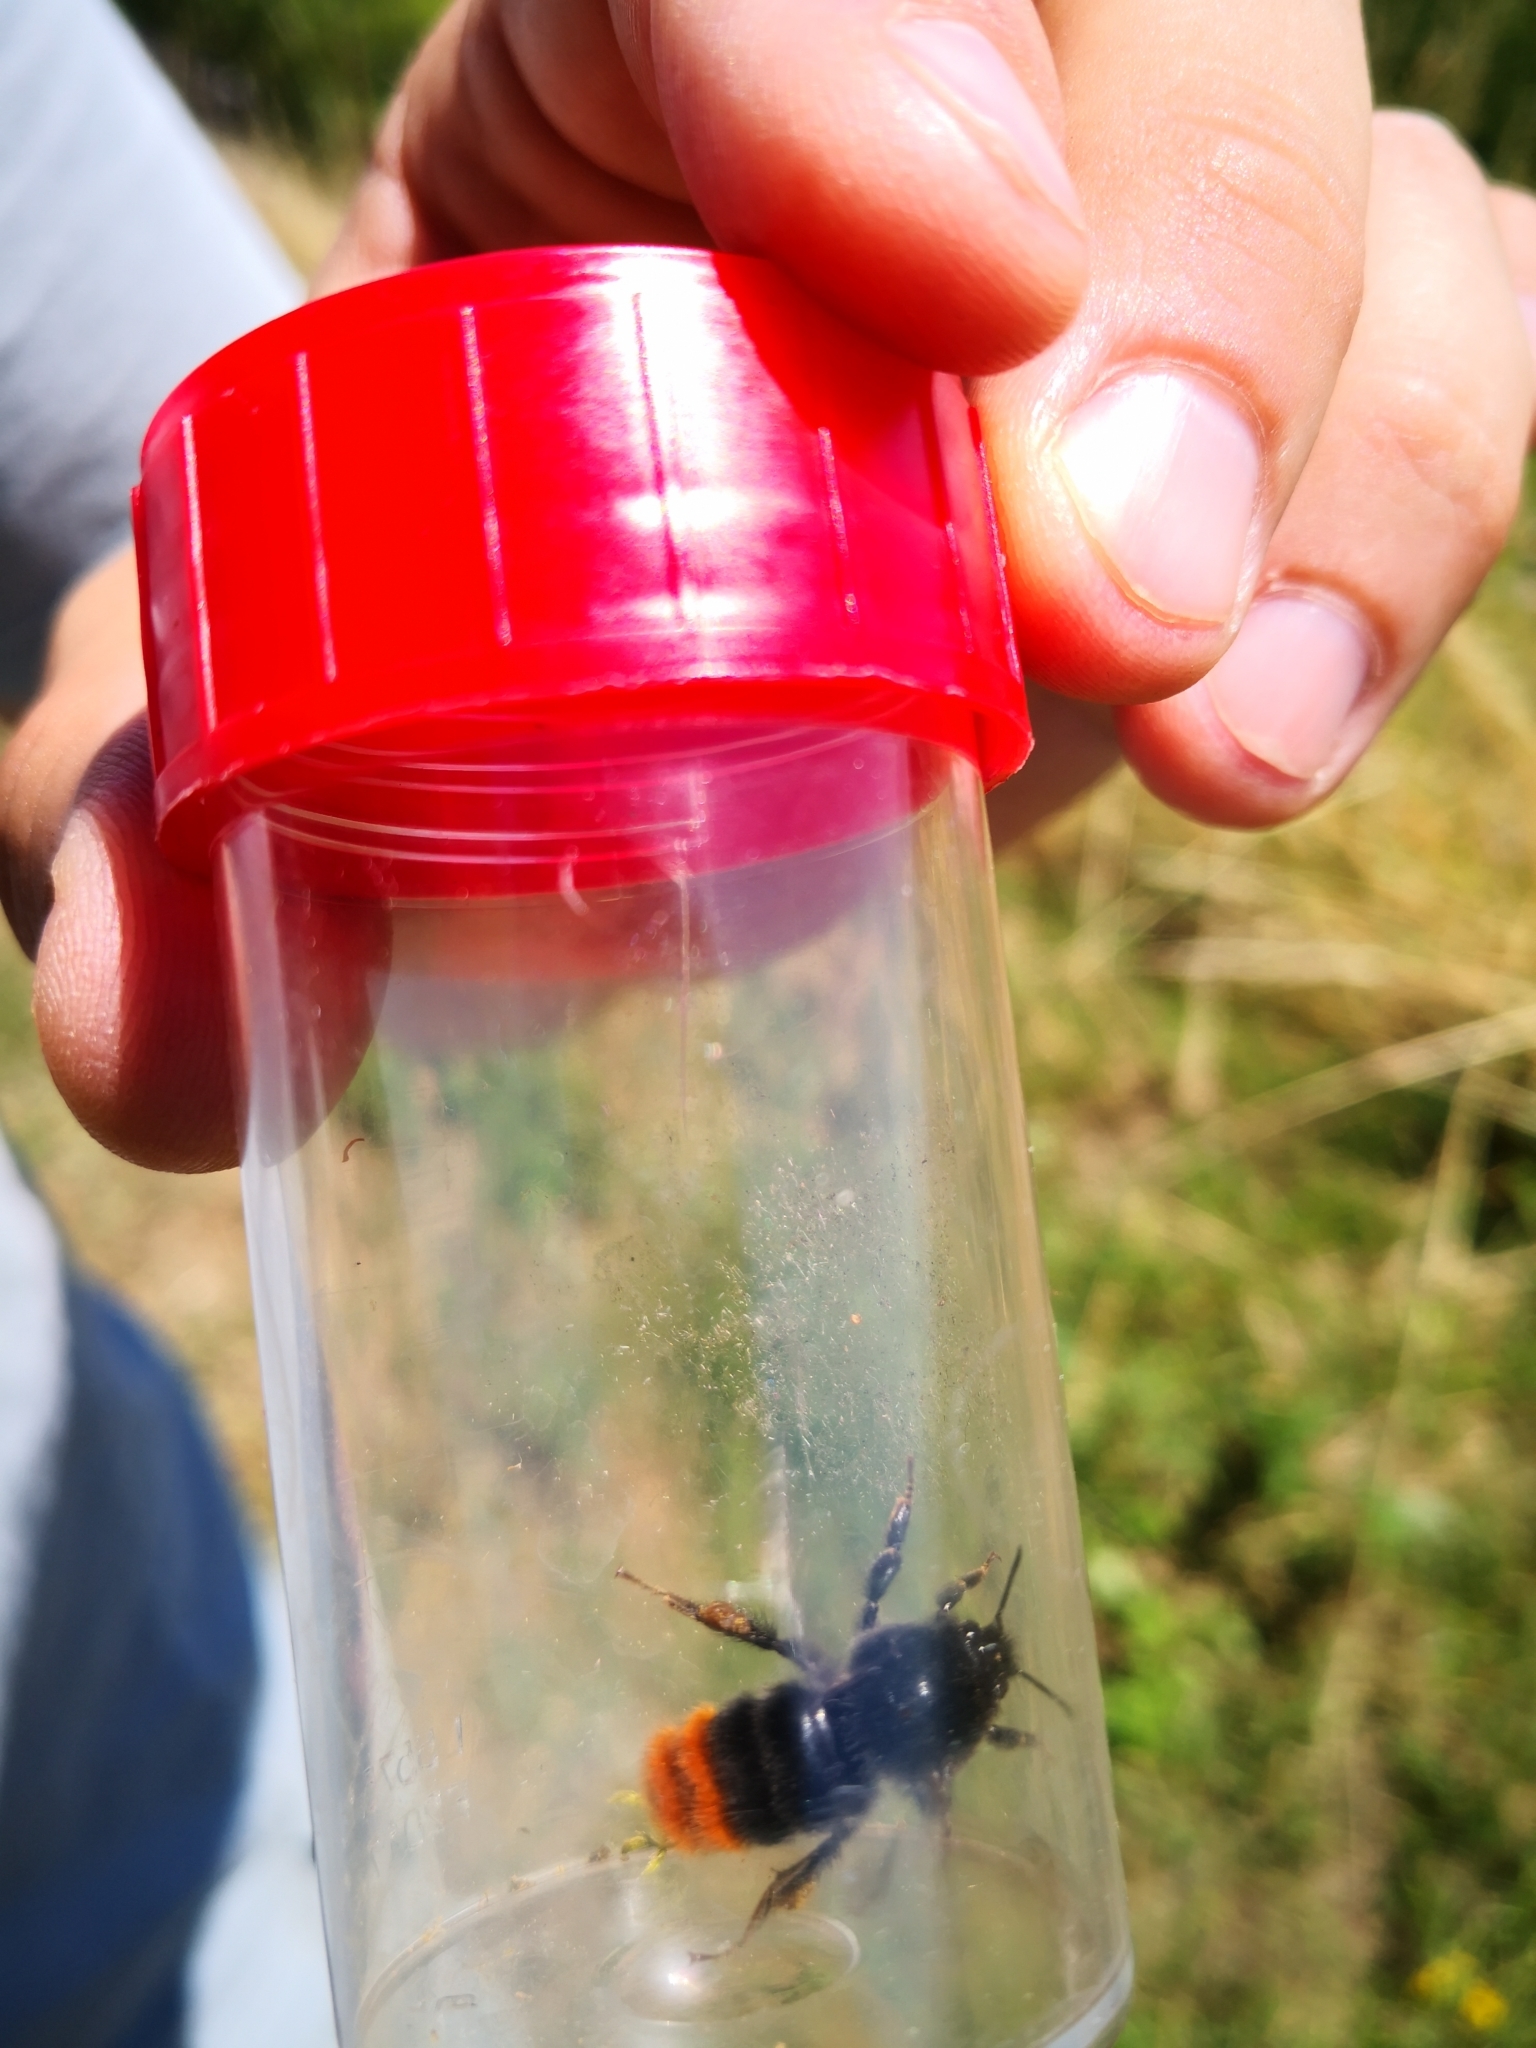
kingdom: Animalia
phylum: Arthropoda
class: Insecta
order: Hymenoptera
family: Apidae
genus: Bombus
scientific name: Bombus lapidarius
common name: Large red-tailed humble-bee
